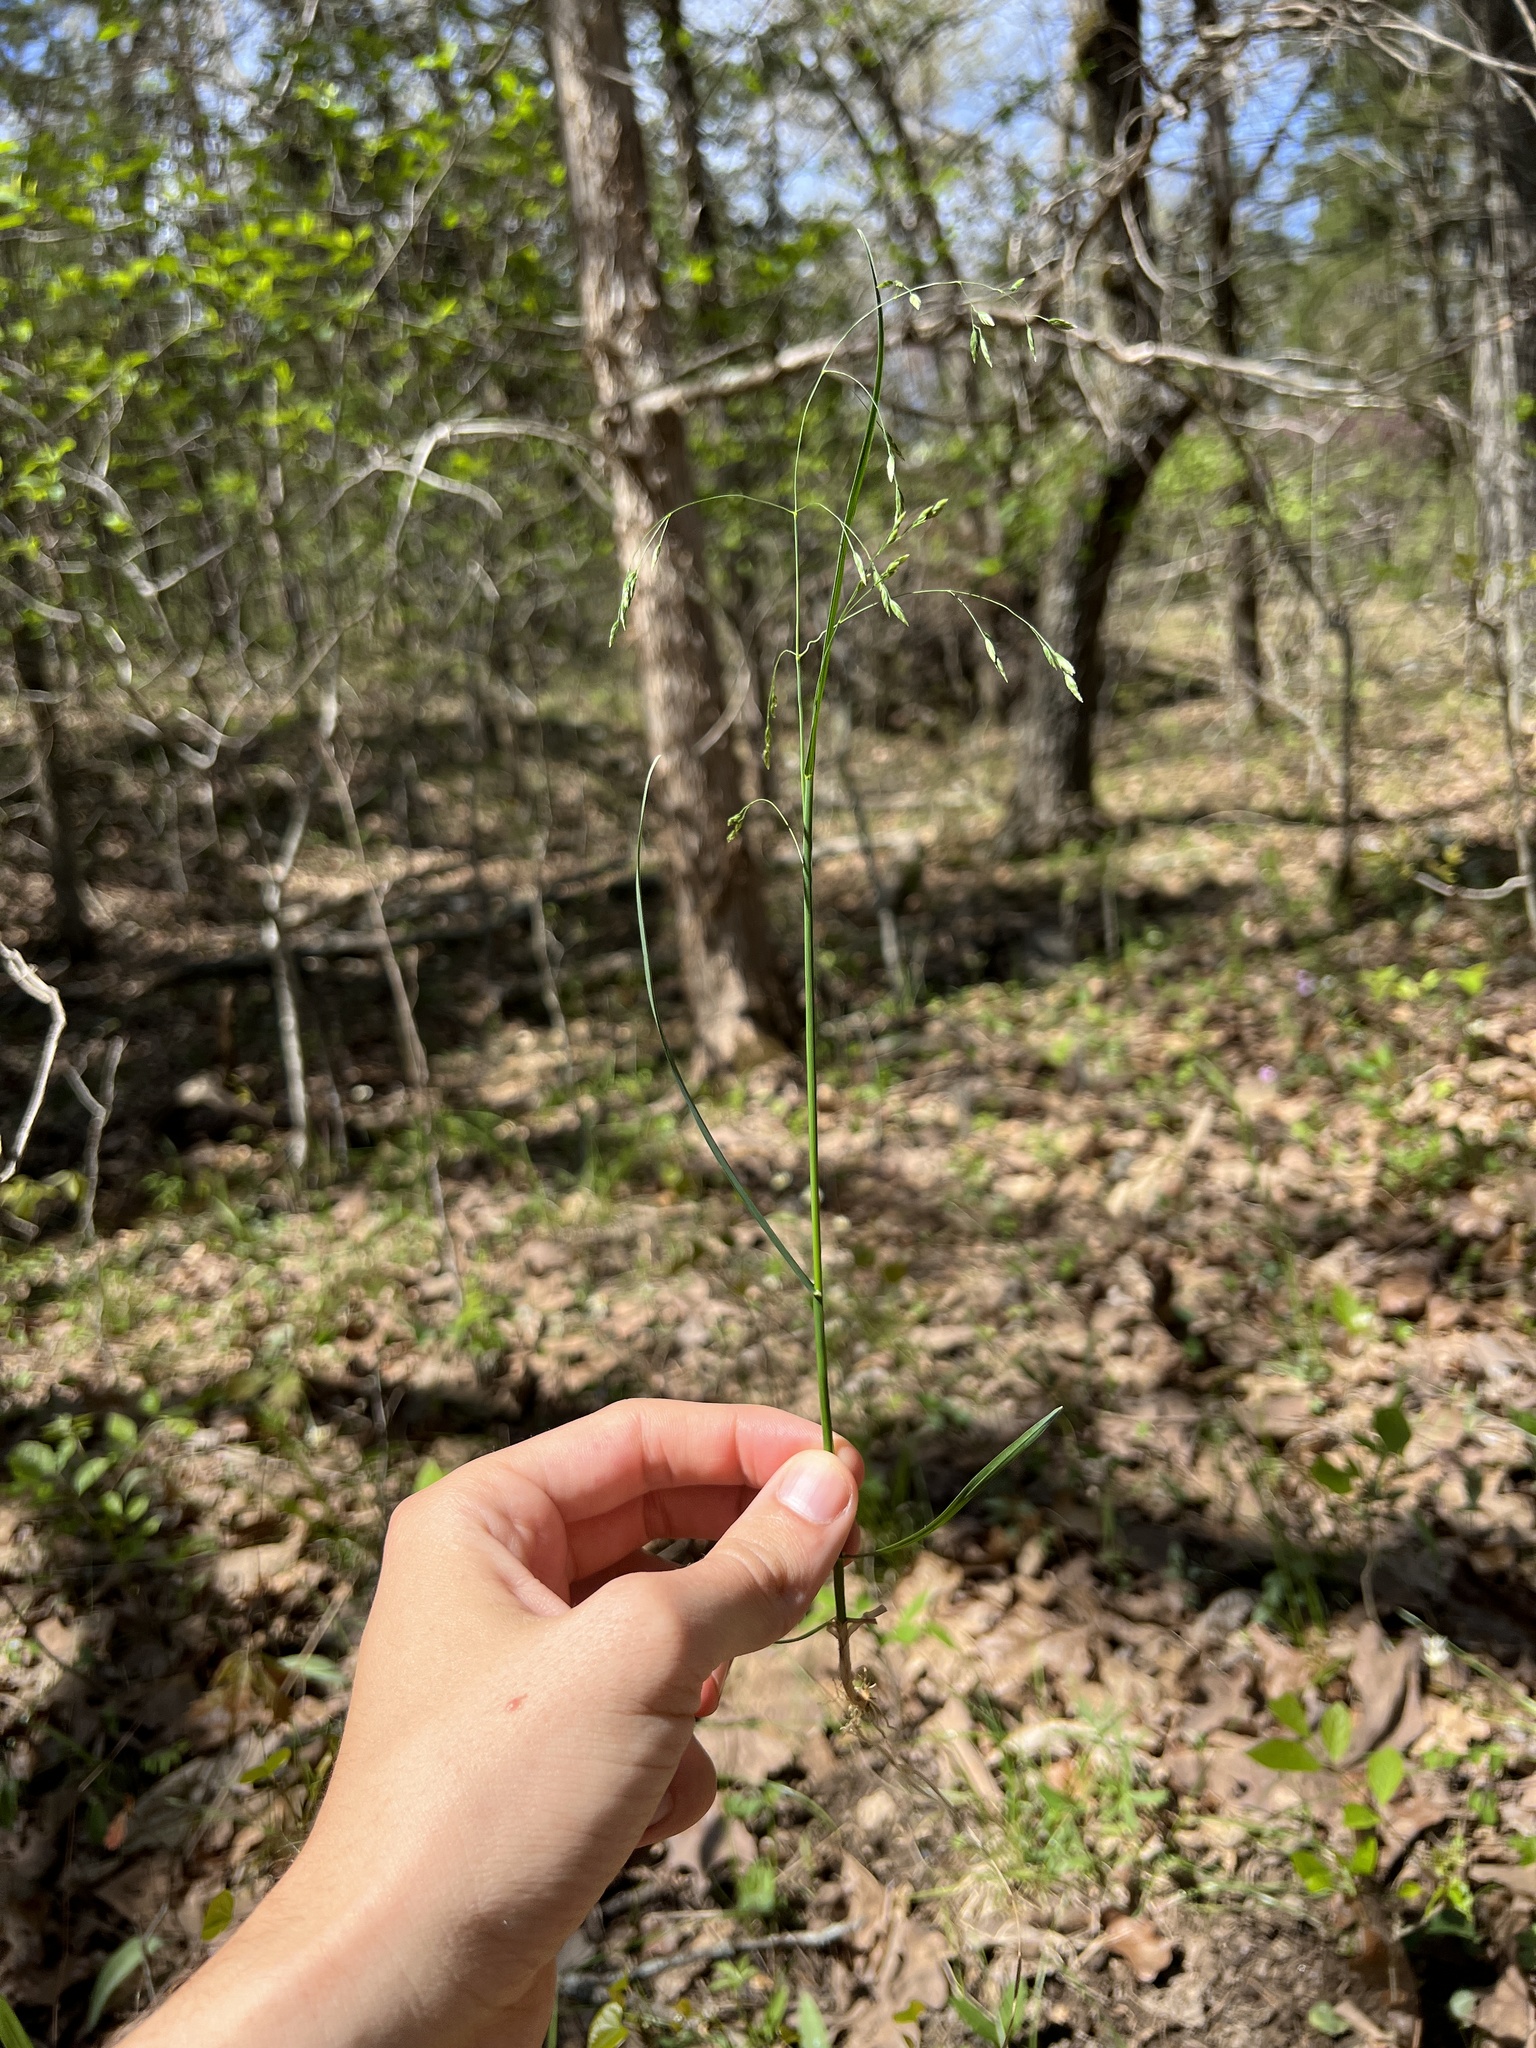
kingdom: Plantae
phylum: Tracheophyta
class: Liliopsida
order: Poales
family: Poaceae
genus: Poa
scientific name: Poa wolfii
